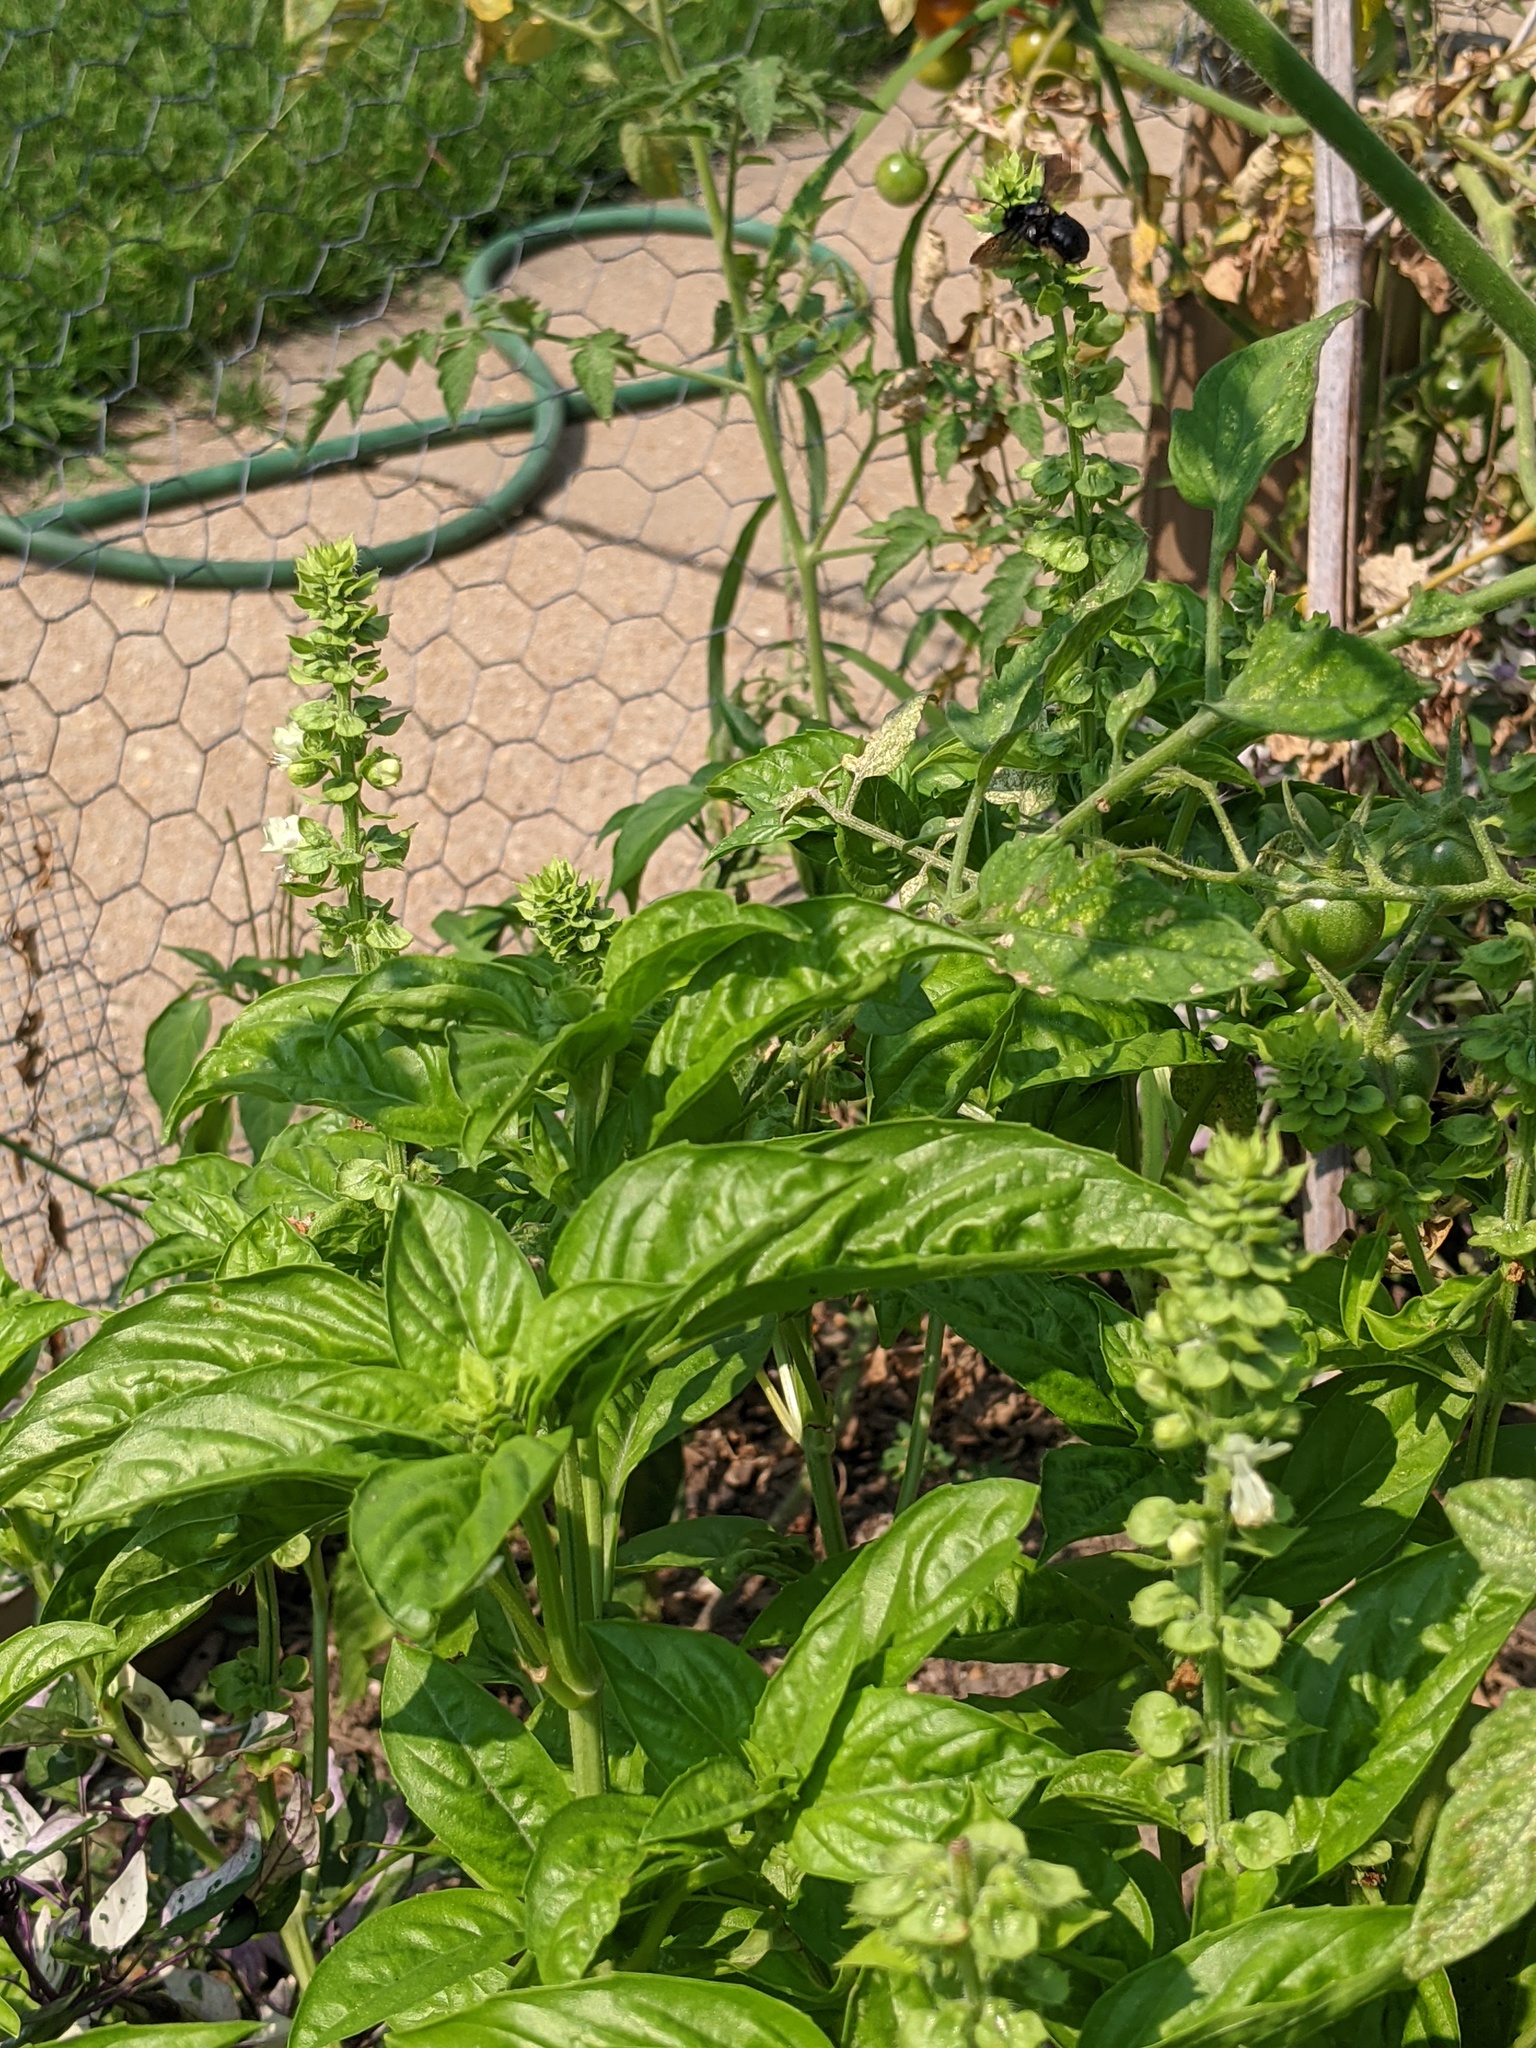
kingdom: Animalia
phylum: Arthropoda
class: Insecta
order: Hymenoptera
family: Apidae
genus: Melissodes
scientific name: Melissodes bimaculatus
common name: Two-spotted long-horned bee
